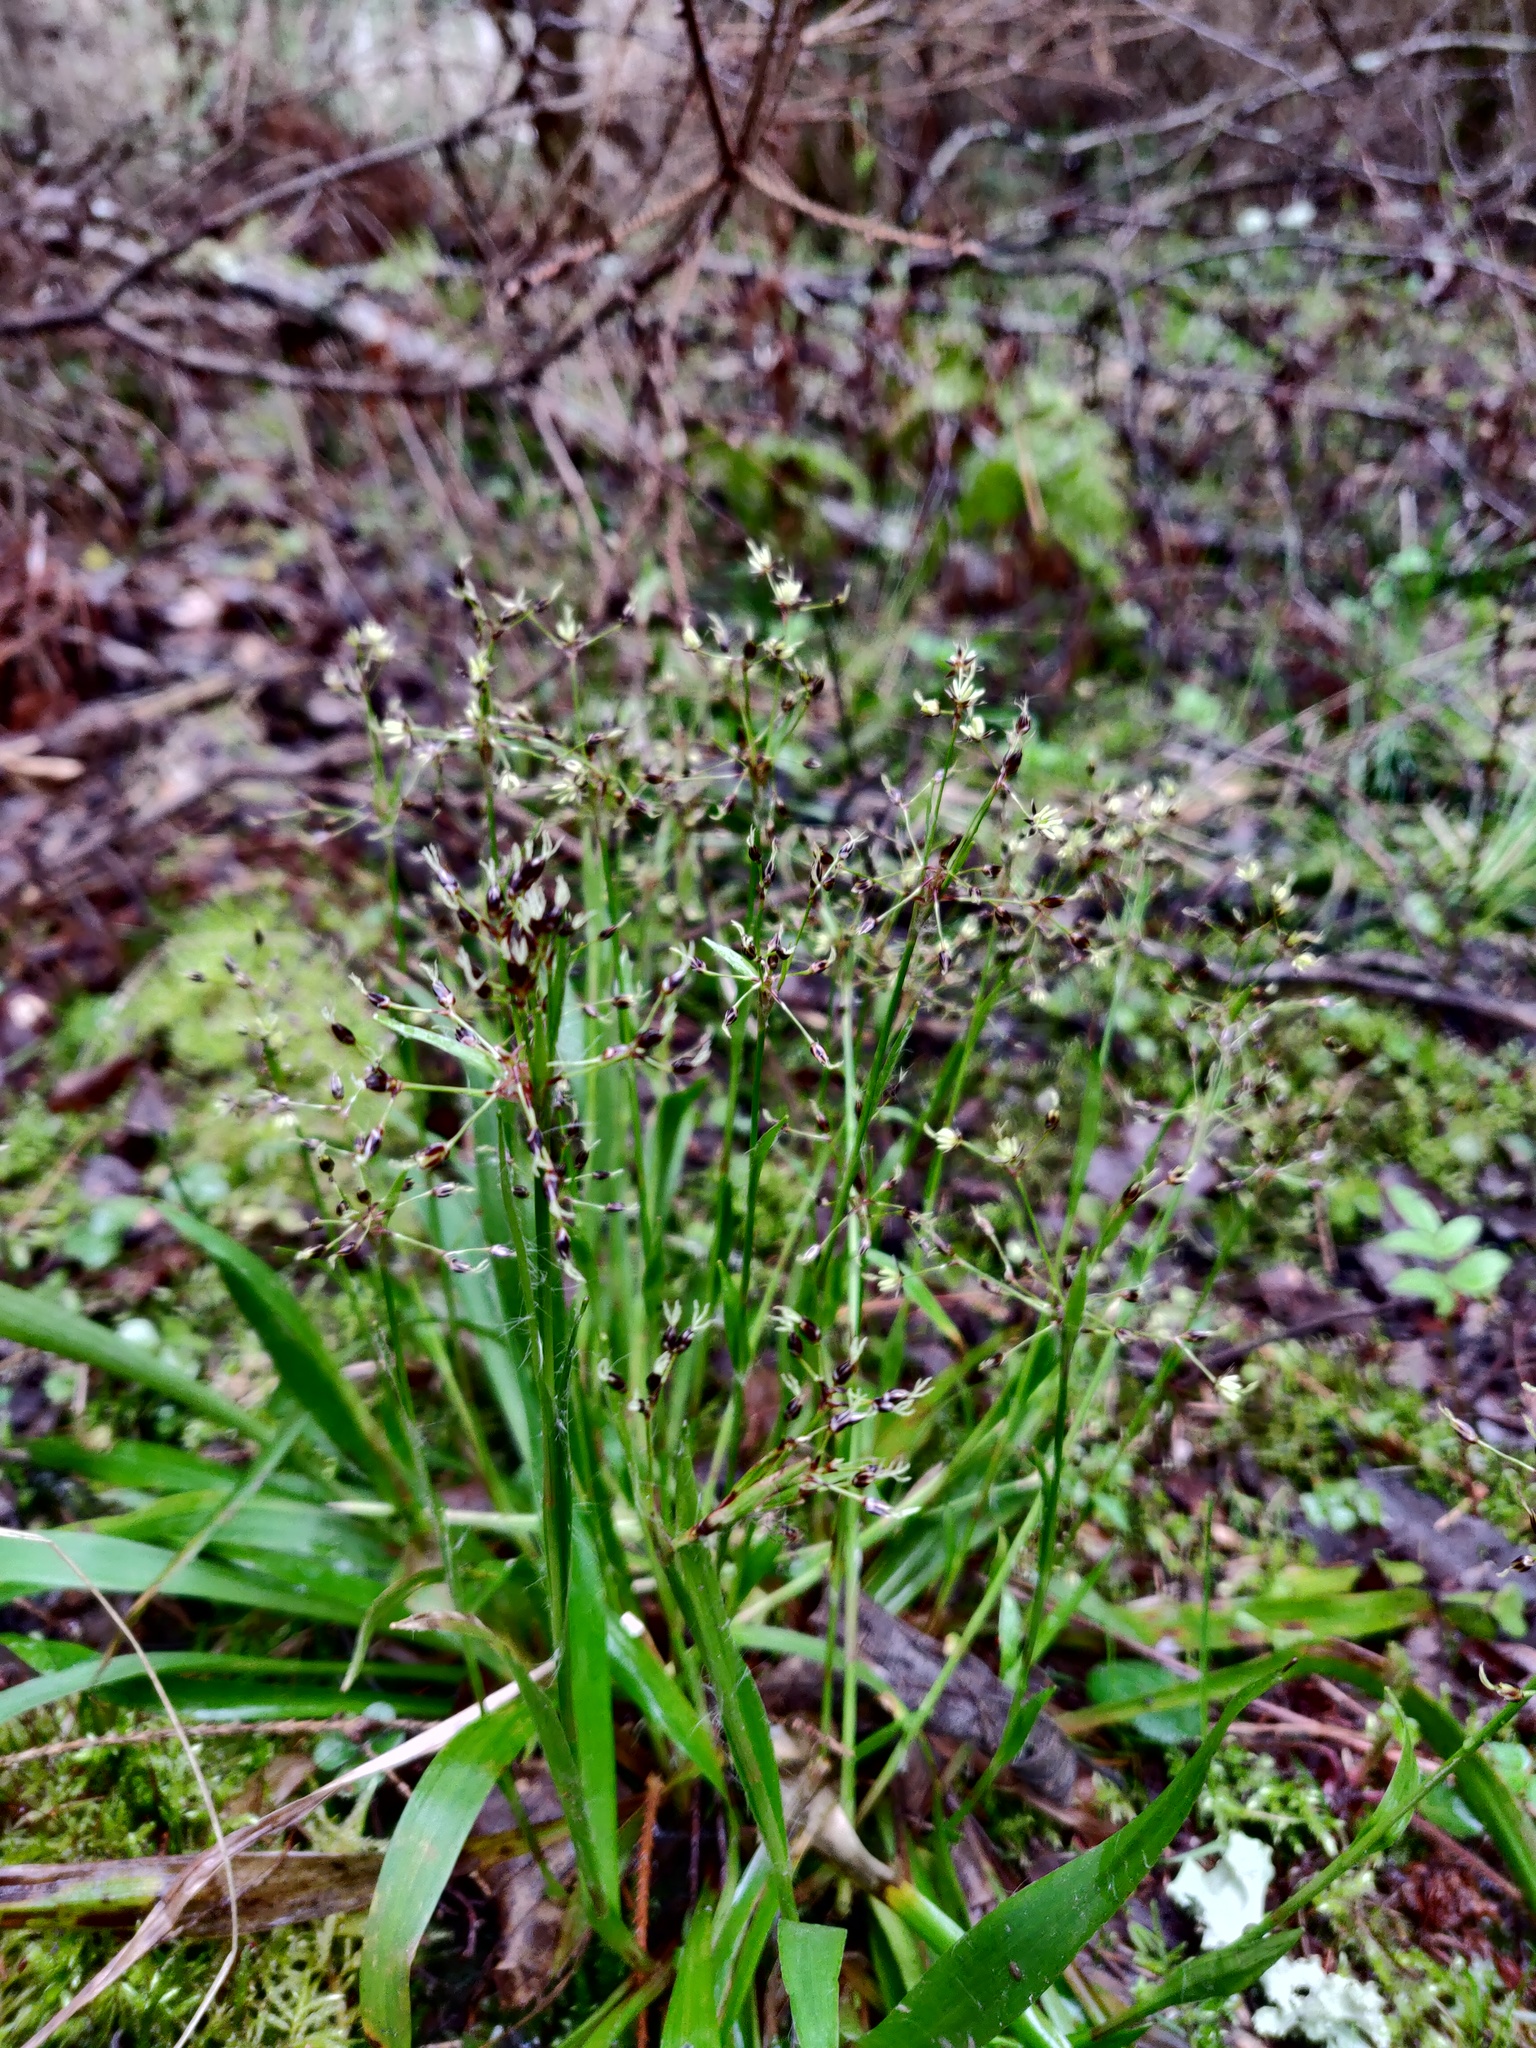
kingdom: Plantae
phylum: Tracheophyta
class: Liliopsida
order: Poales
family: Juncaceae
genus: Luzula
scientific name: Luzula pilosa
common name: Hairy wood-rush
